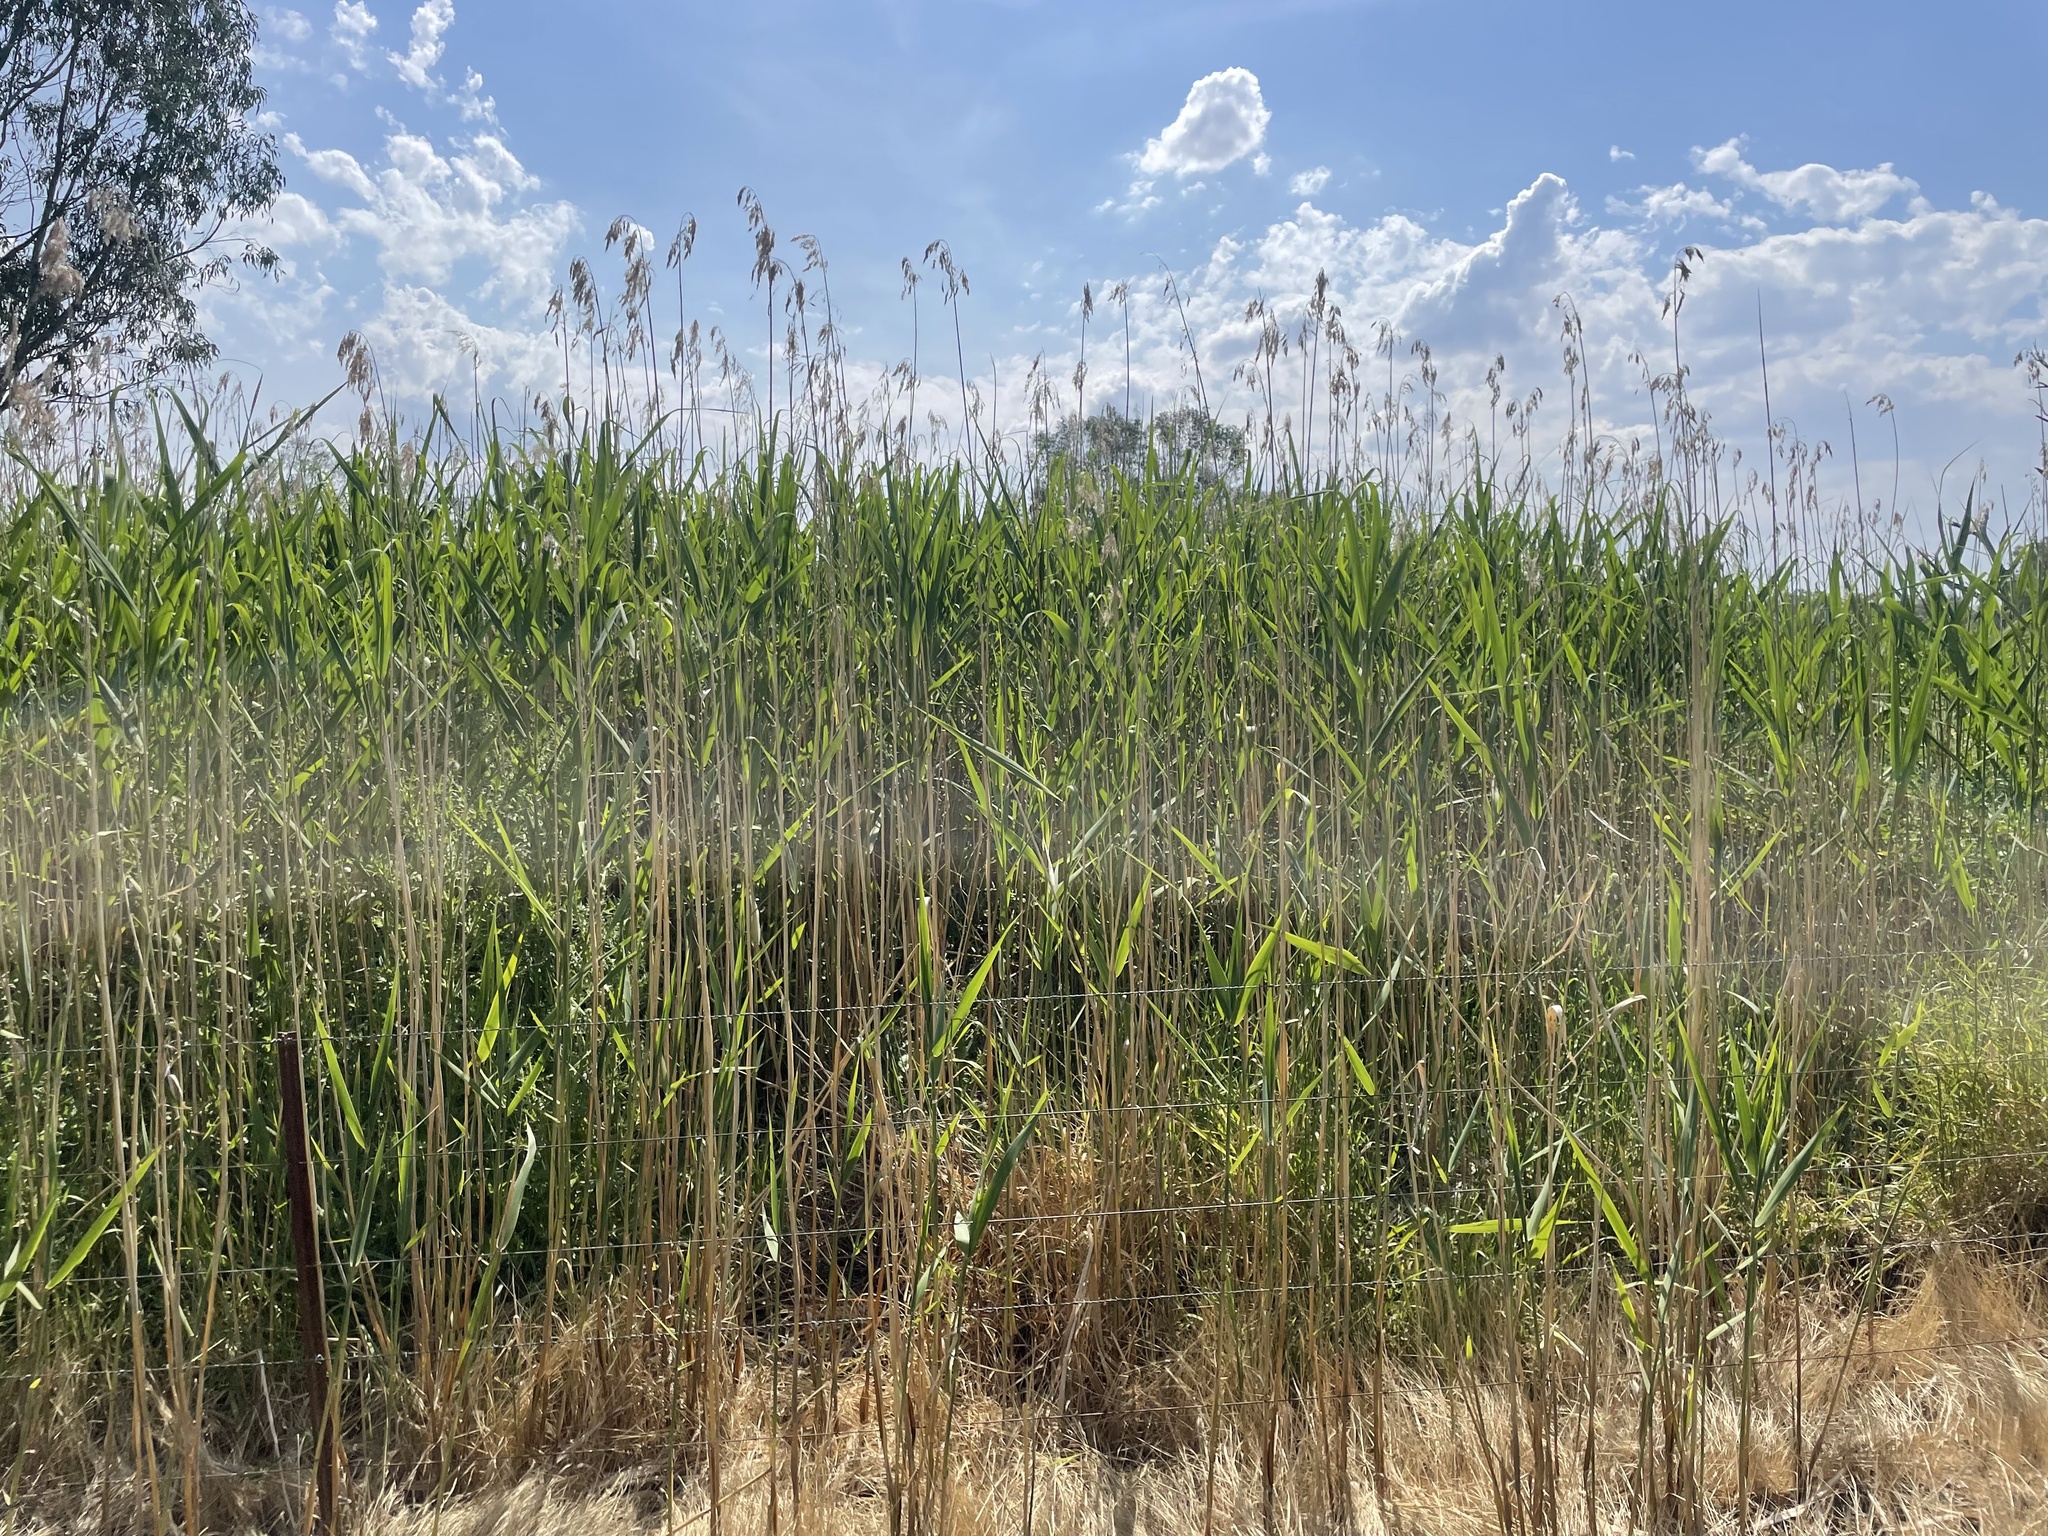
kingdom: Plantae
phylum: Tracheophyta
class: Liliopsida
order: Poales
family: Poaceae
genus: Phragmites
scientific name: Phragmites australis
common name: Common reed
